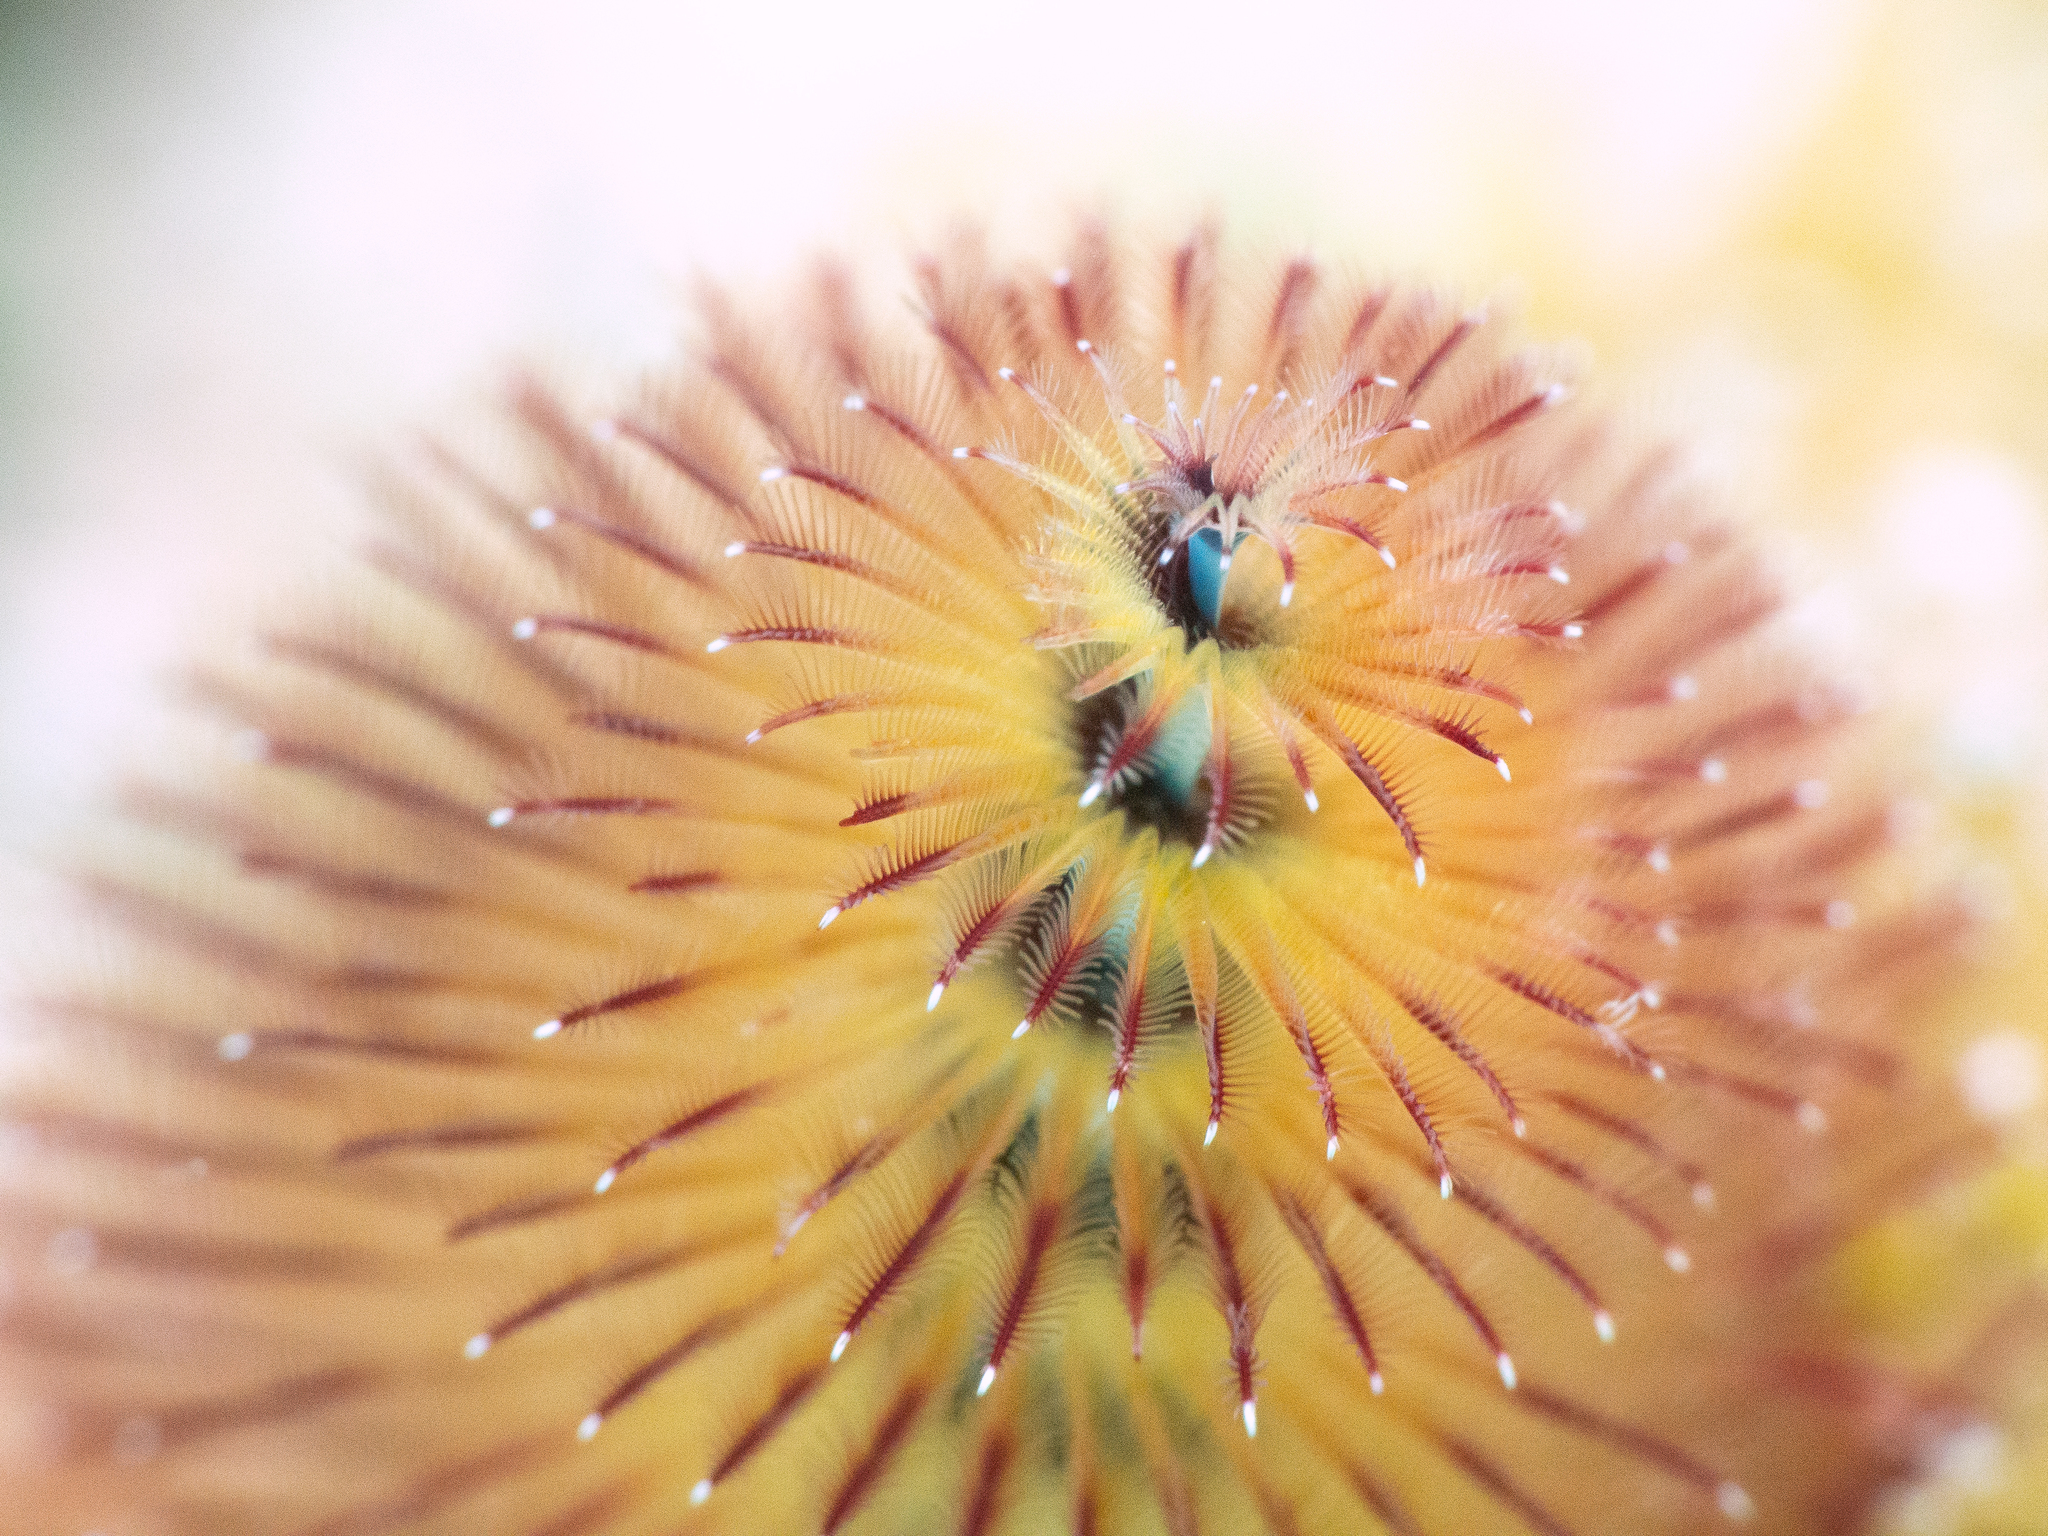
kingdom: Animalia
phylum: Annelida
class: Polychaeta
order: Sabellida
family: Serpulidae
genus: Spirobranchus
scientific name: Spirobranchus giganteus
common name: Christmas tree worm
